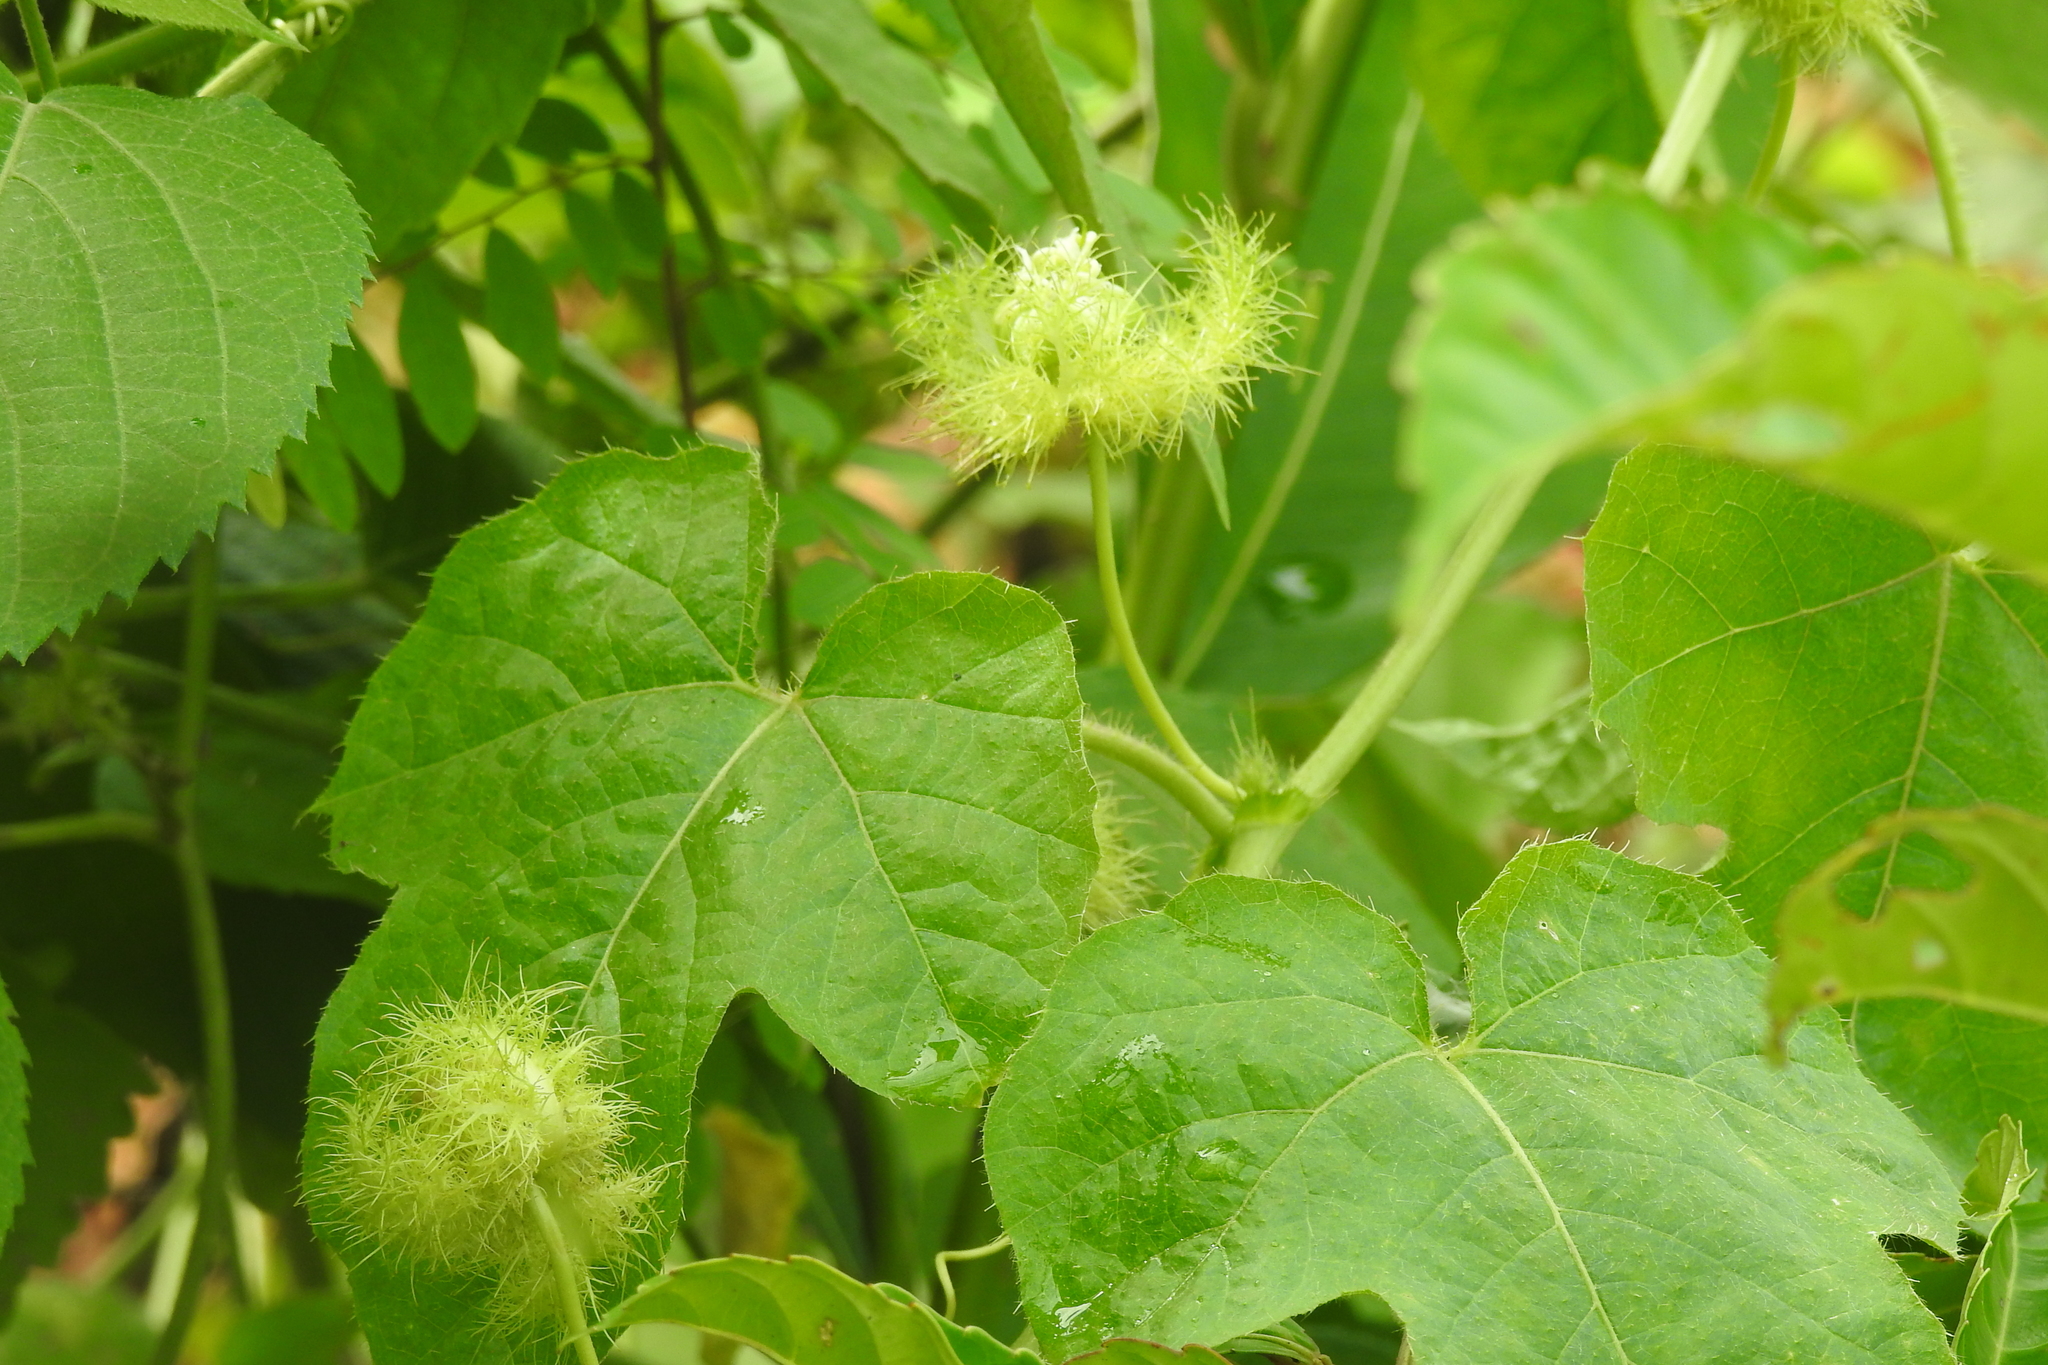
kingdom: Plantae
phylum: Tracheophyta
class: Magnoliopsida
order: Malpighiales
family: Passifloraceae
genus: Passiflora
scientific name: Passiflora vesicaria
